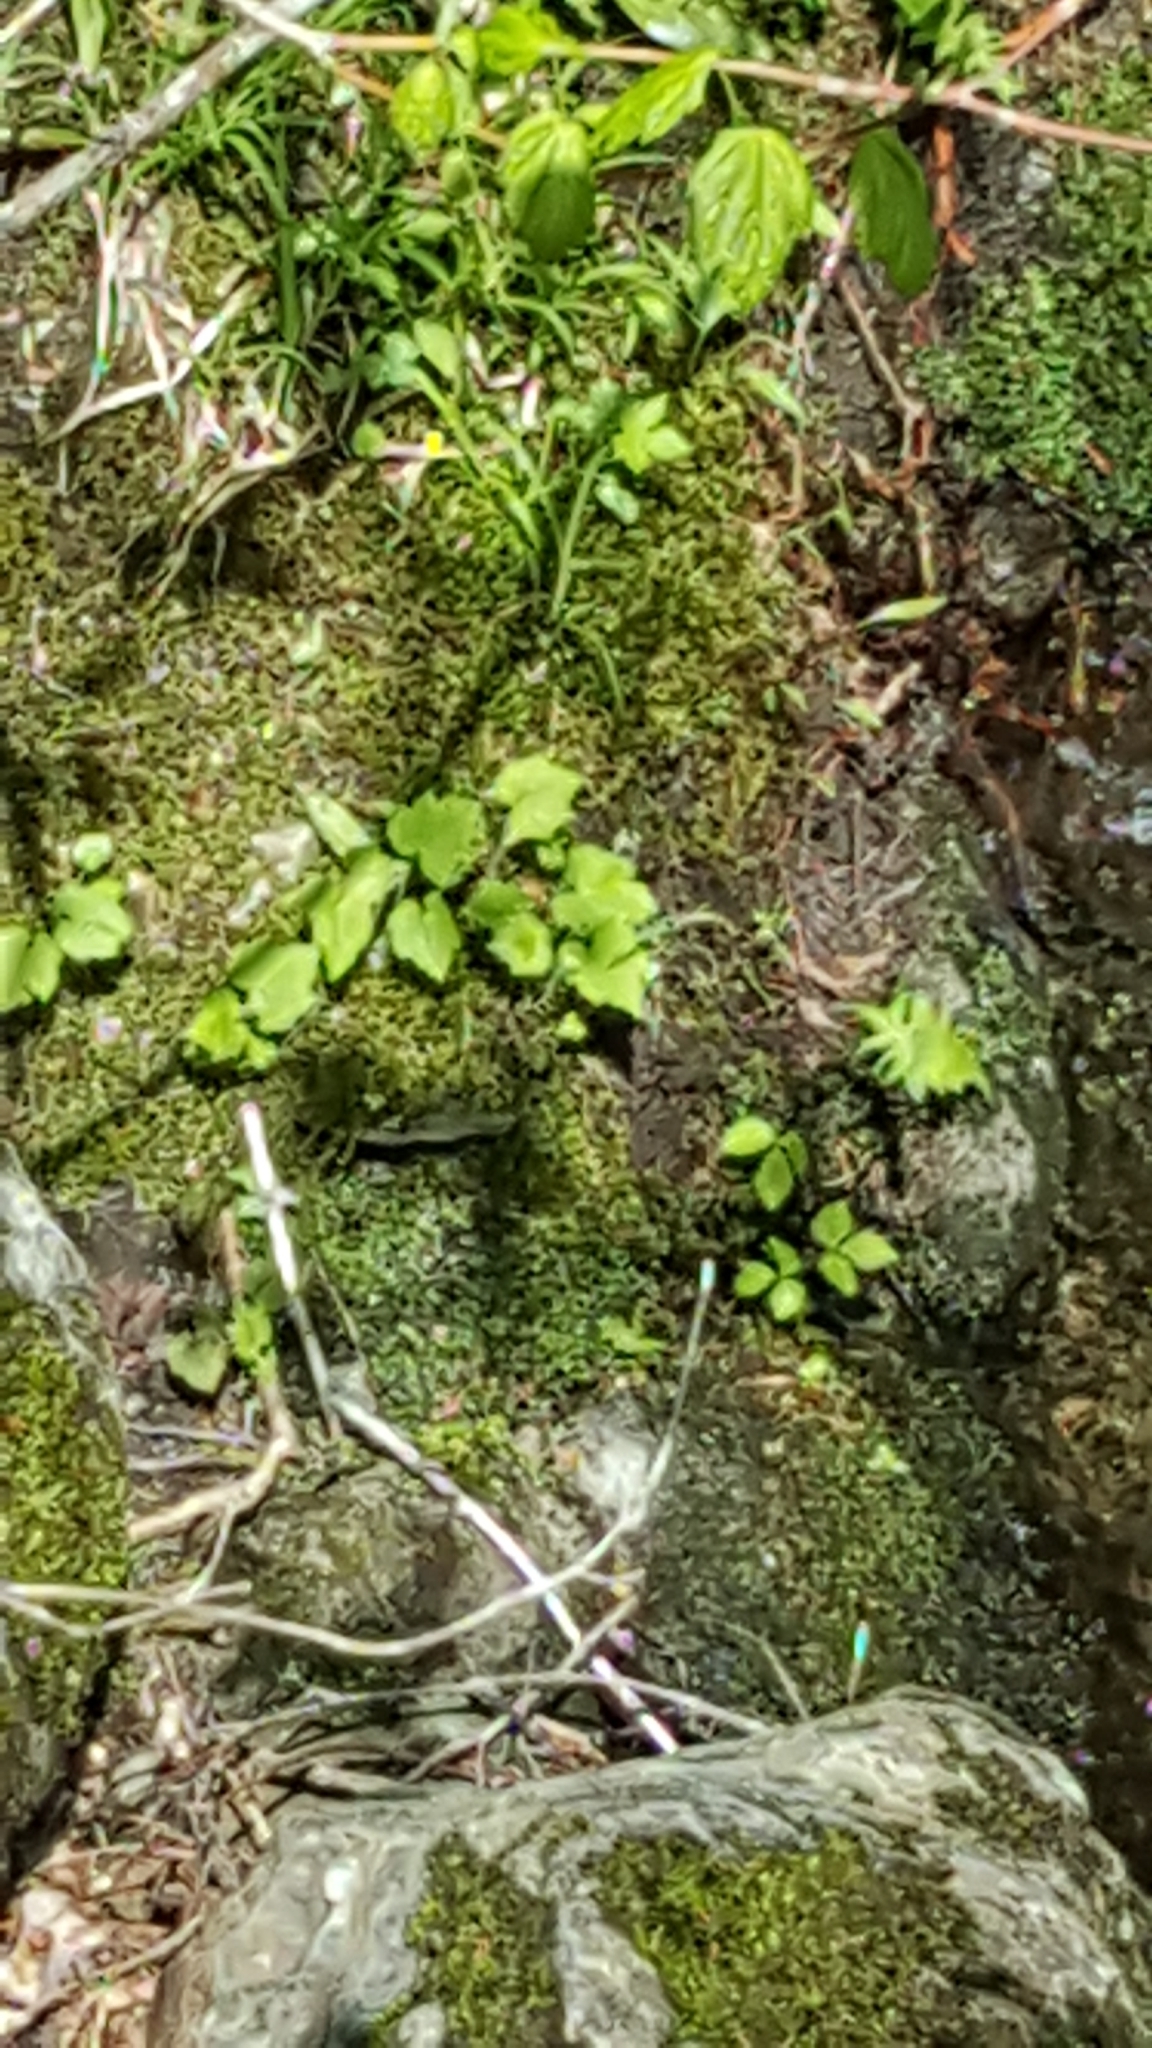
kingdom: Plantae
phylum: Tracheophyta
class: Magnoliopsida
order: Saxifragales
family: Saxifragaceae
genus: Tiarella
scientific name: Tiarella stolonifera
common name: Stoloniferous foamflower
